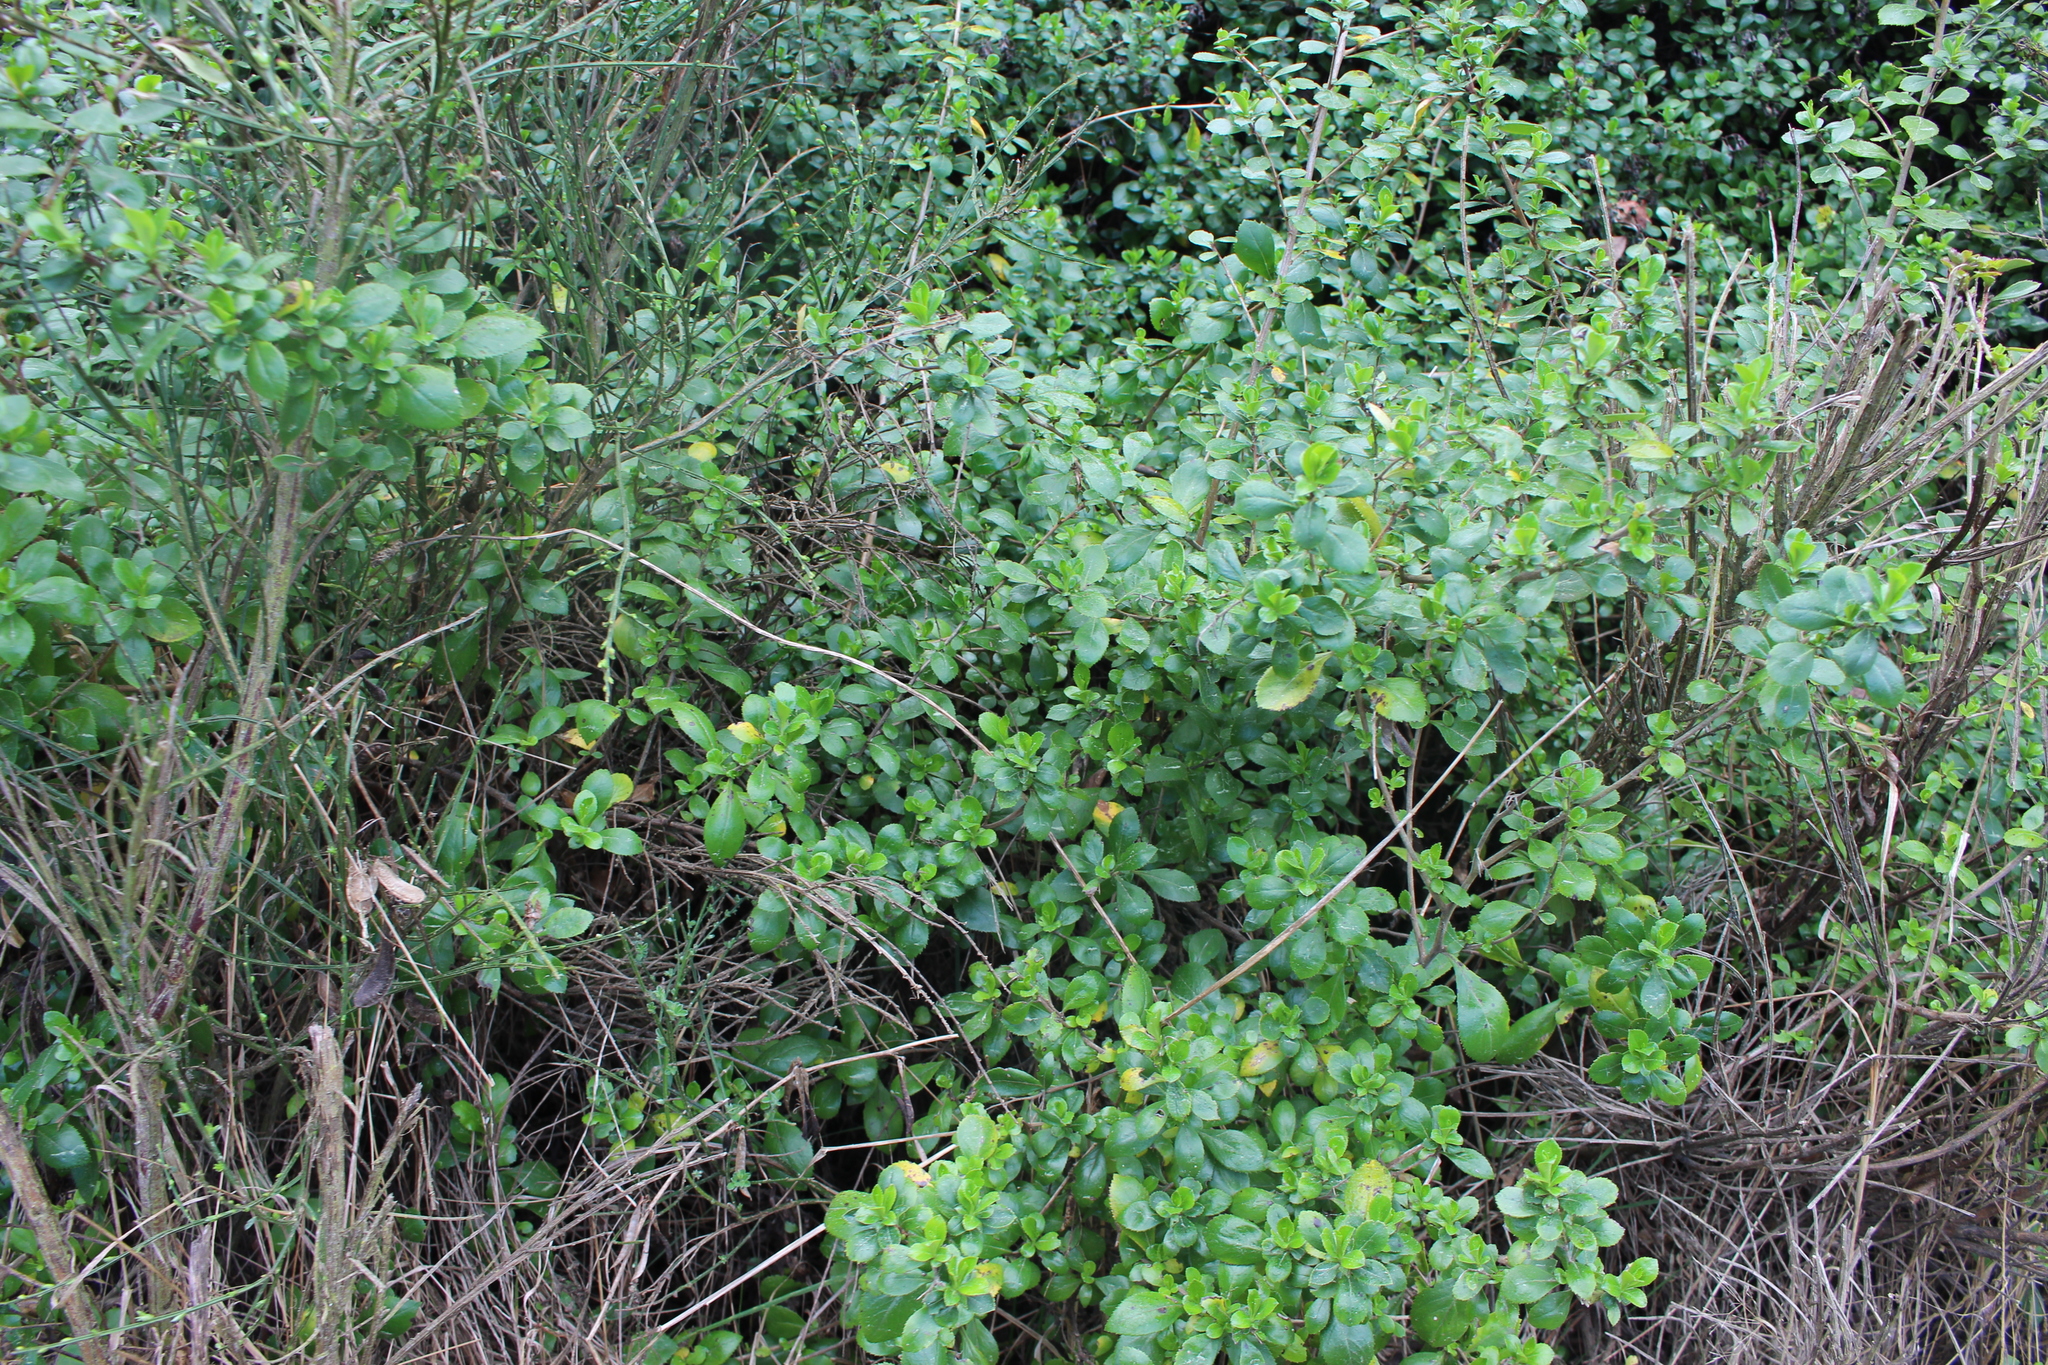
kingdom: Plantae
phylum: Tracheophyta
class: Magnoliopsida
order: Escalloniales
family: Escalloniaceae
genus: Escallonia
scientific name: Escallonia rubra
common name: Redclaws
